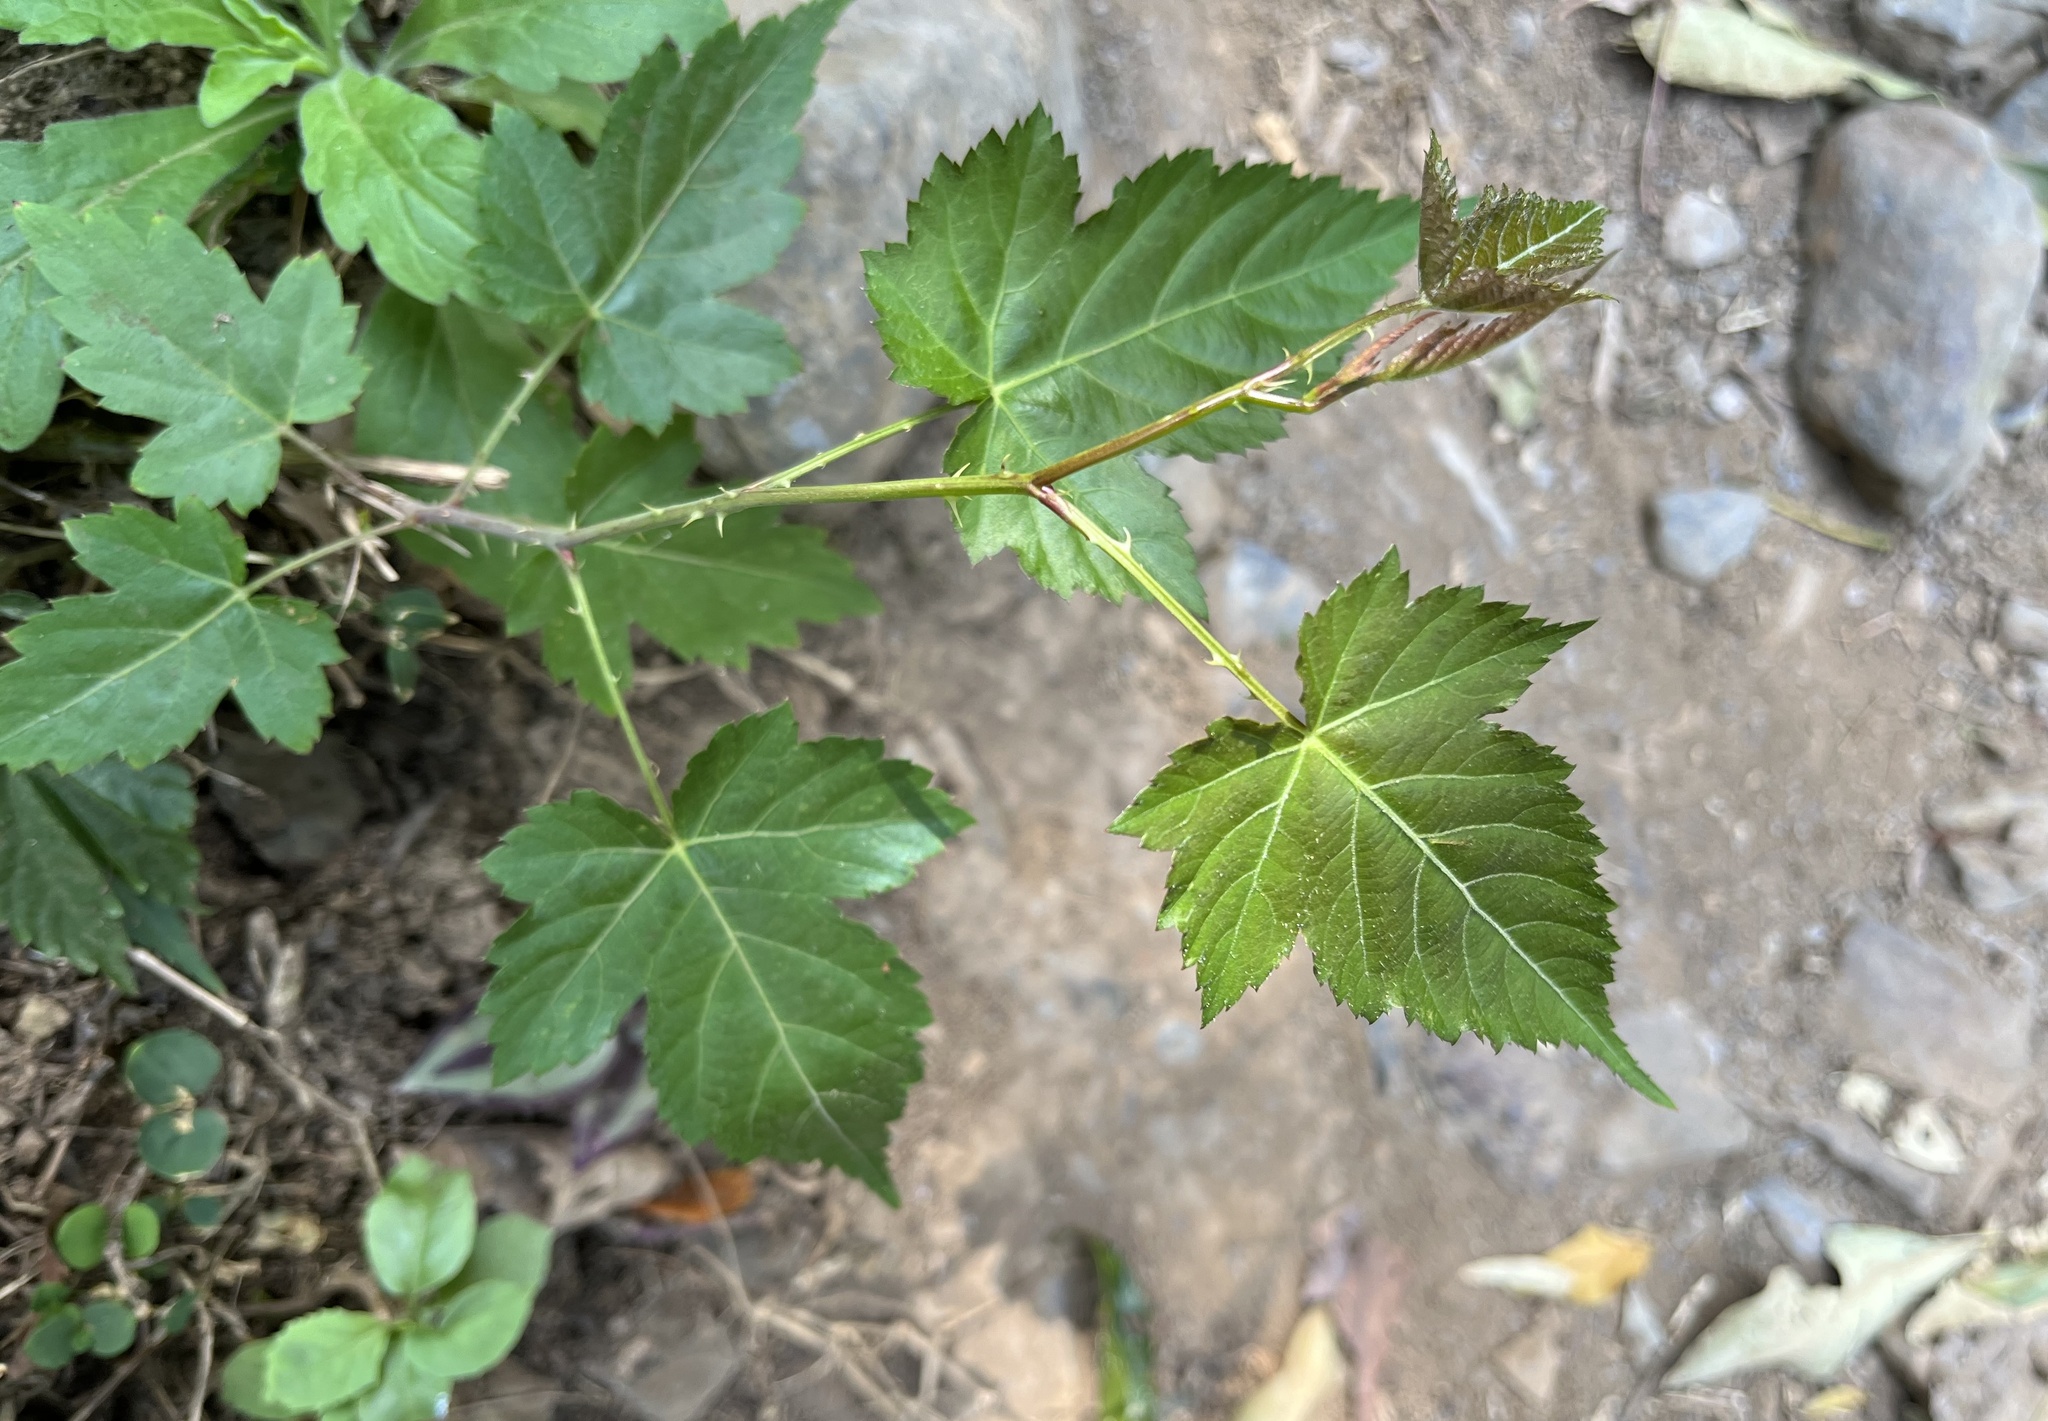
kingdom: Plantae
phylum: Tracheophyta
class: Magnoliopsida
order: Rosales
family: Rosaceae
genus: Rubus
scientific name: Rubus corchorifolius
